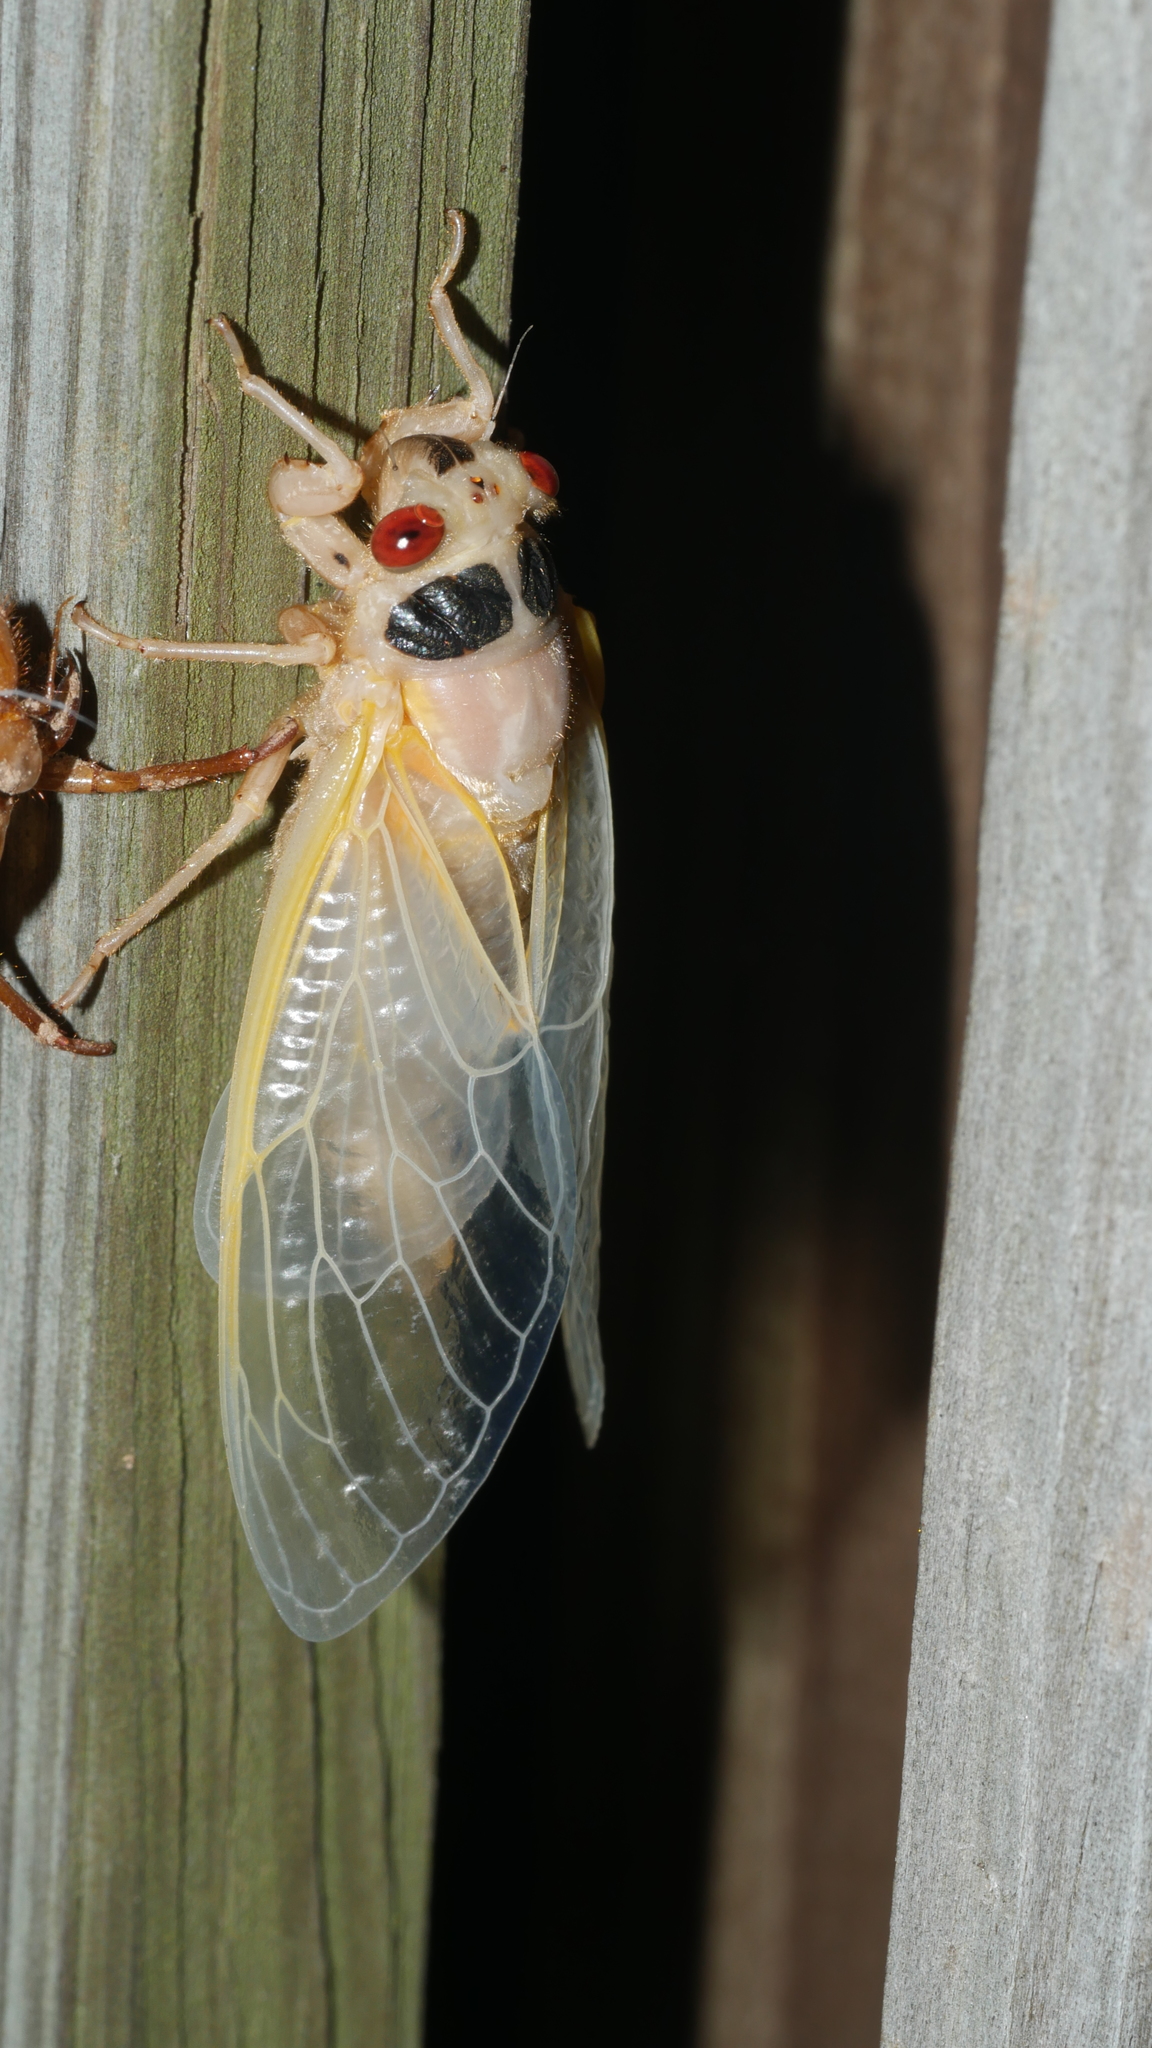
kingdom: Animalia
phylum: Arthropoda
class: Insecta
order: Hemiptera
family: Cicadidae
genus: Magicicada
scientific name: Magicicada
